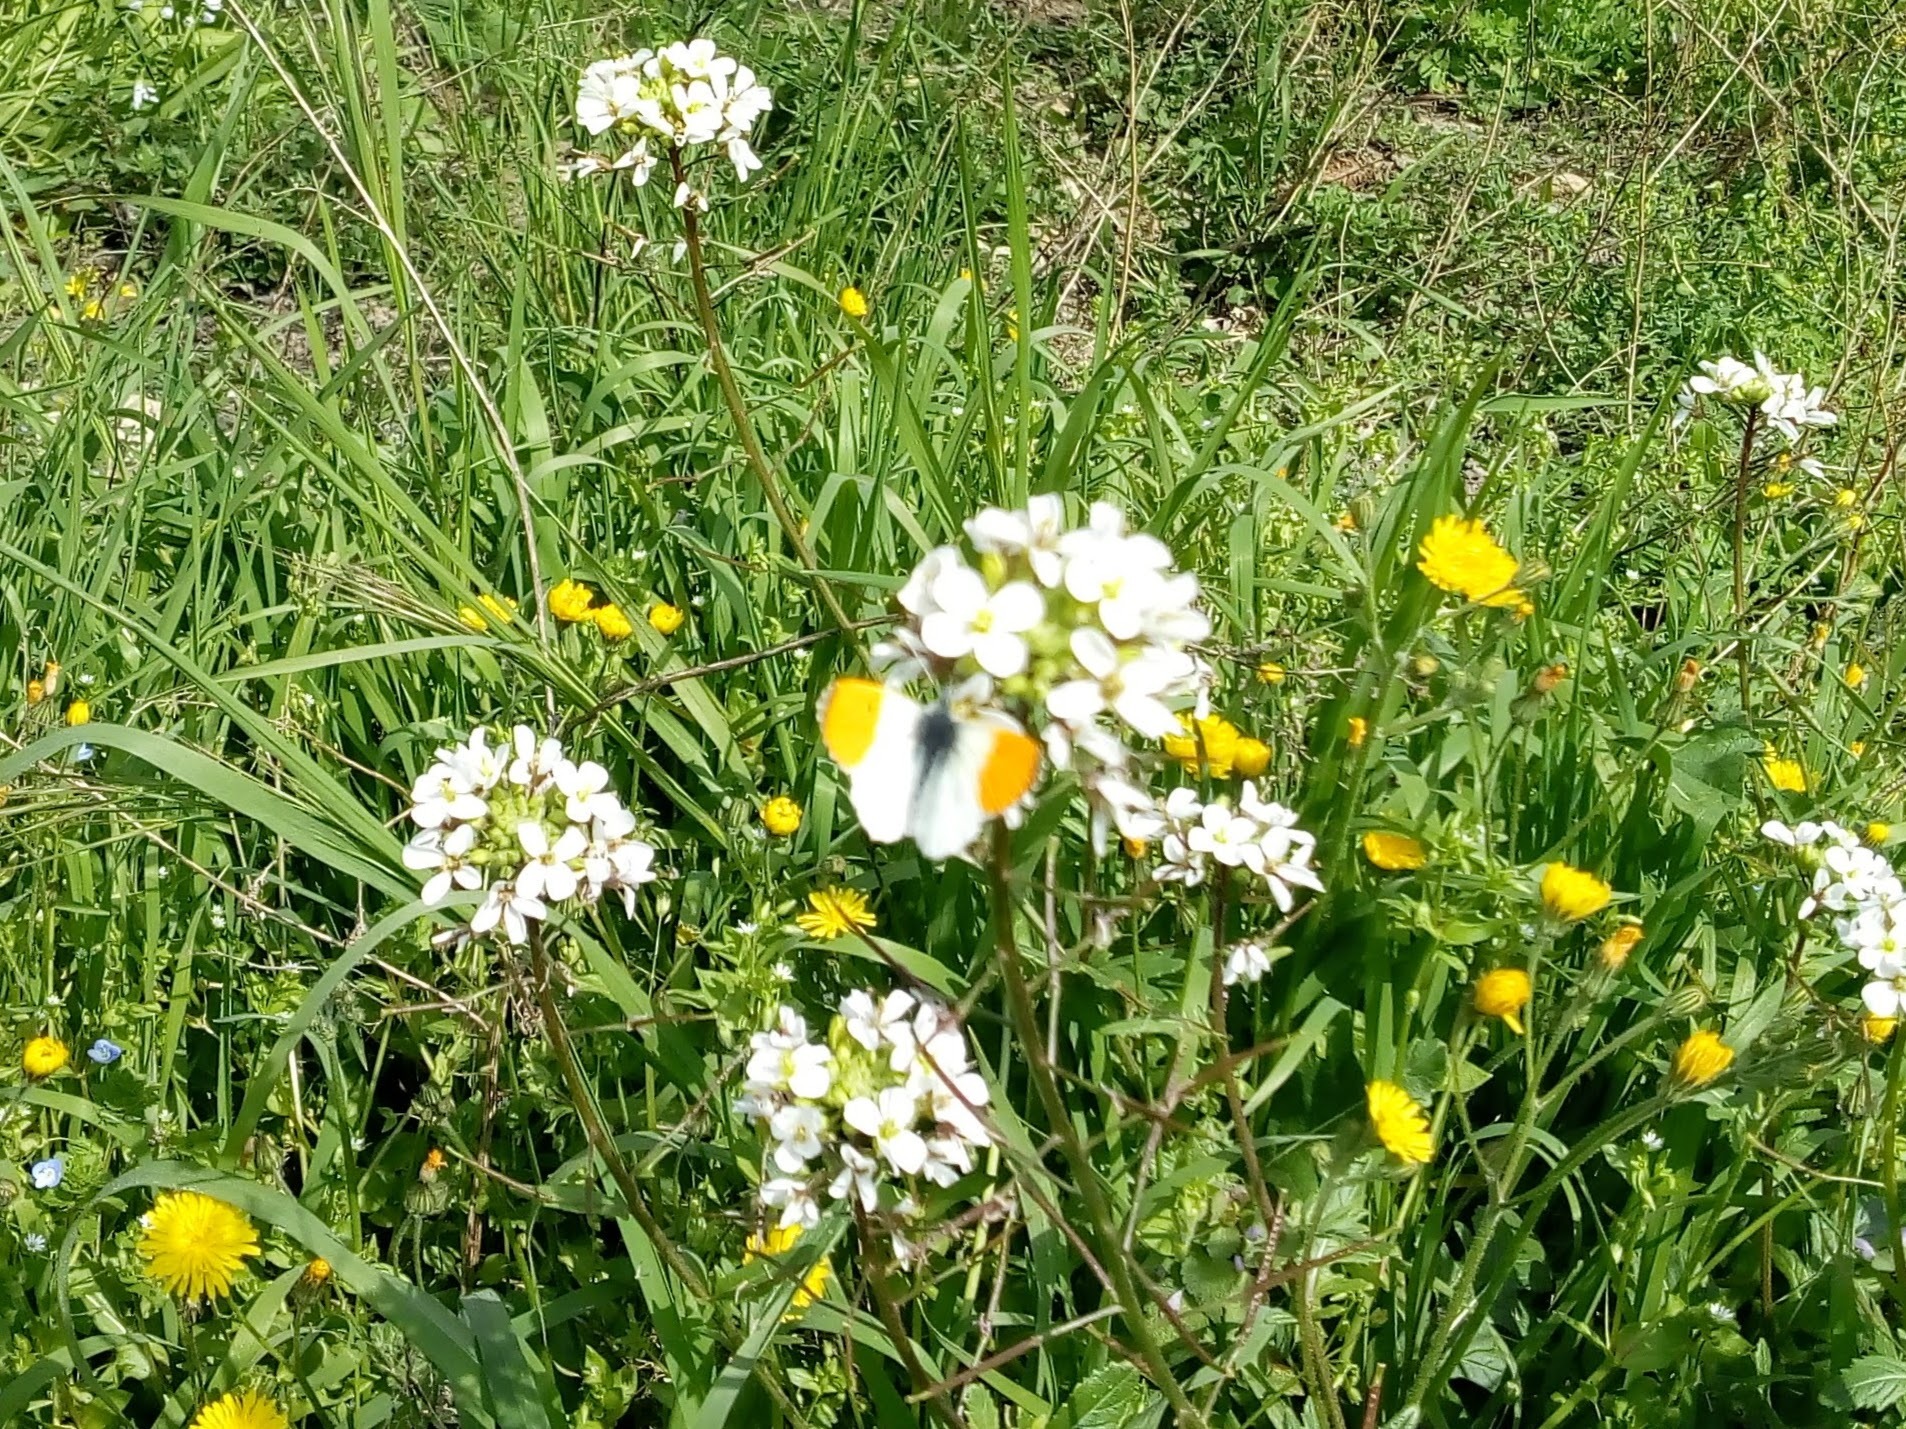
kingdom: Animalia
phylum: Arthropoda
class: Insecta
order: Lepidoptera
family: Pieridae
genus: Anthocharis
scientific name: Anthocharis cardamines
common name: Orange-tip
